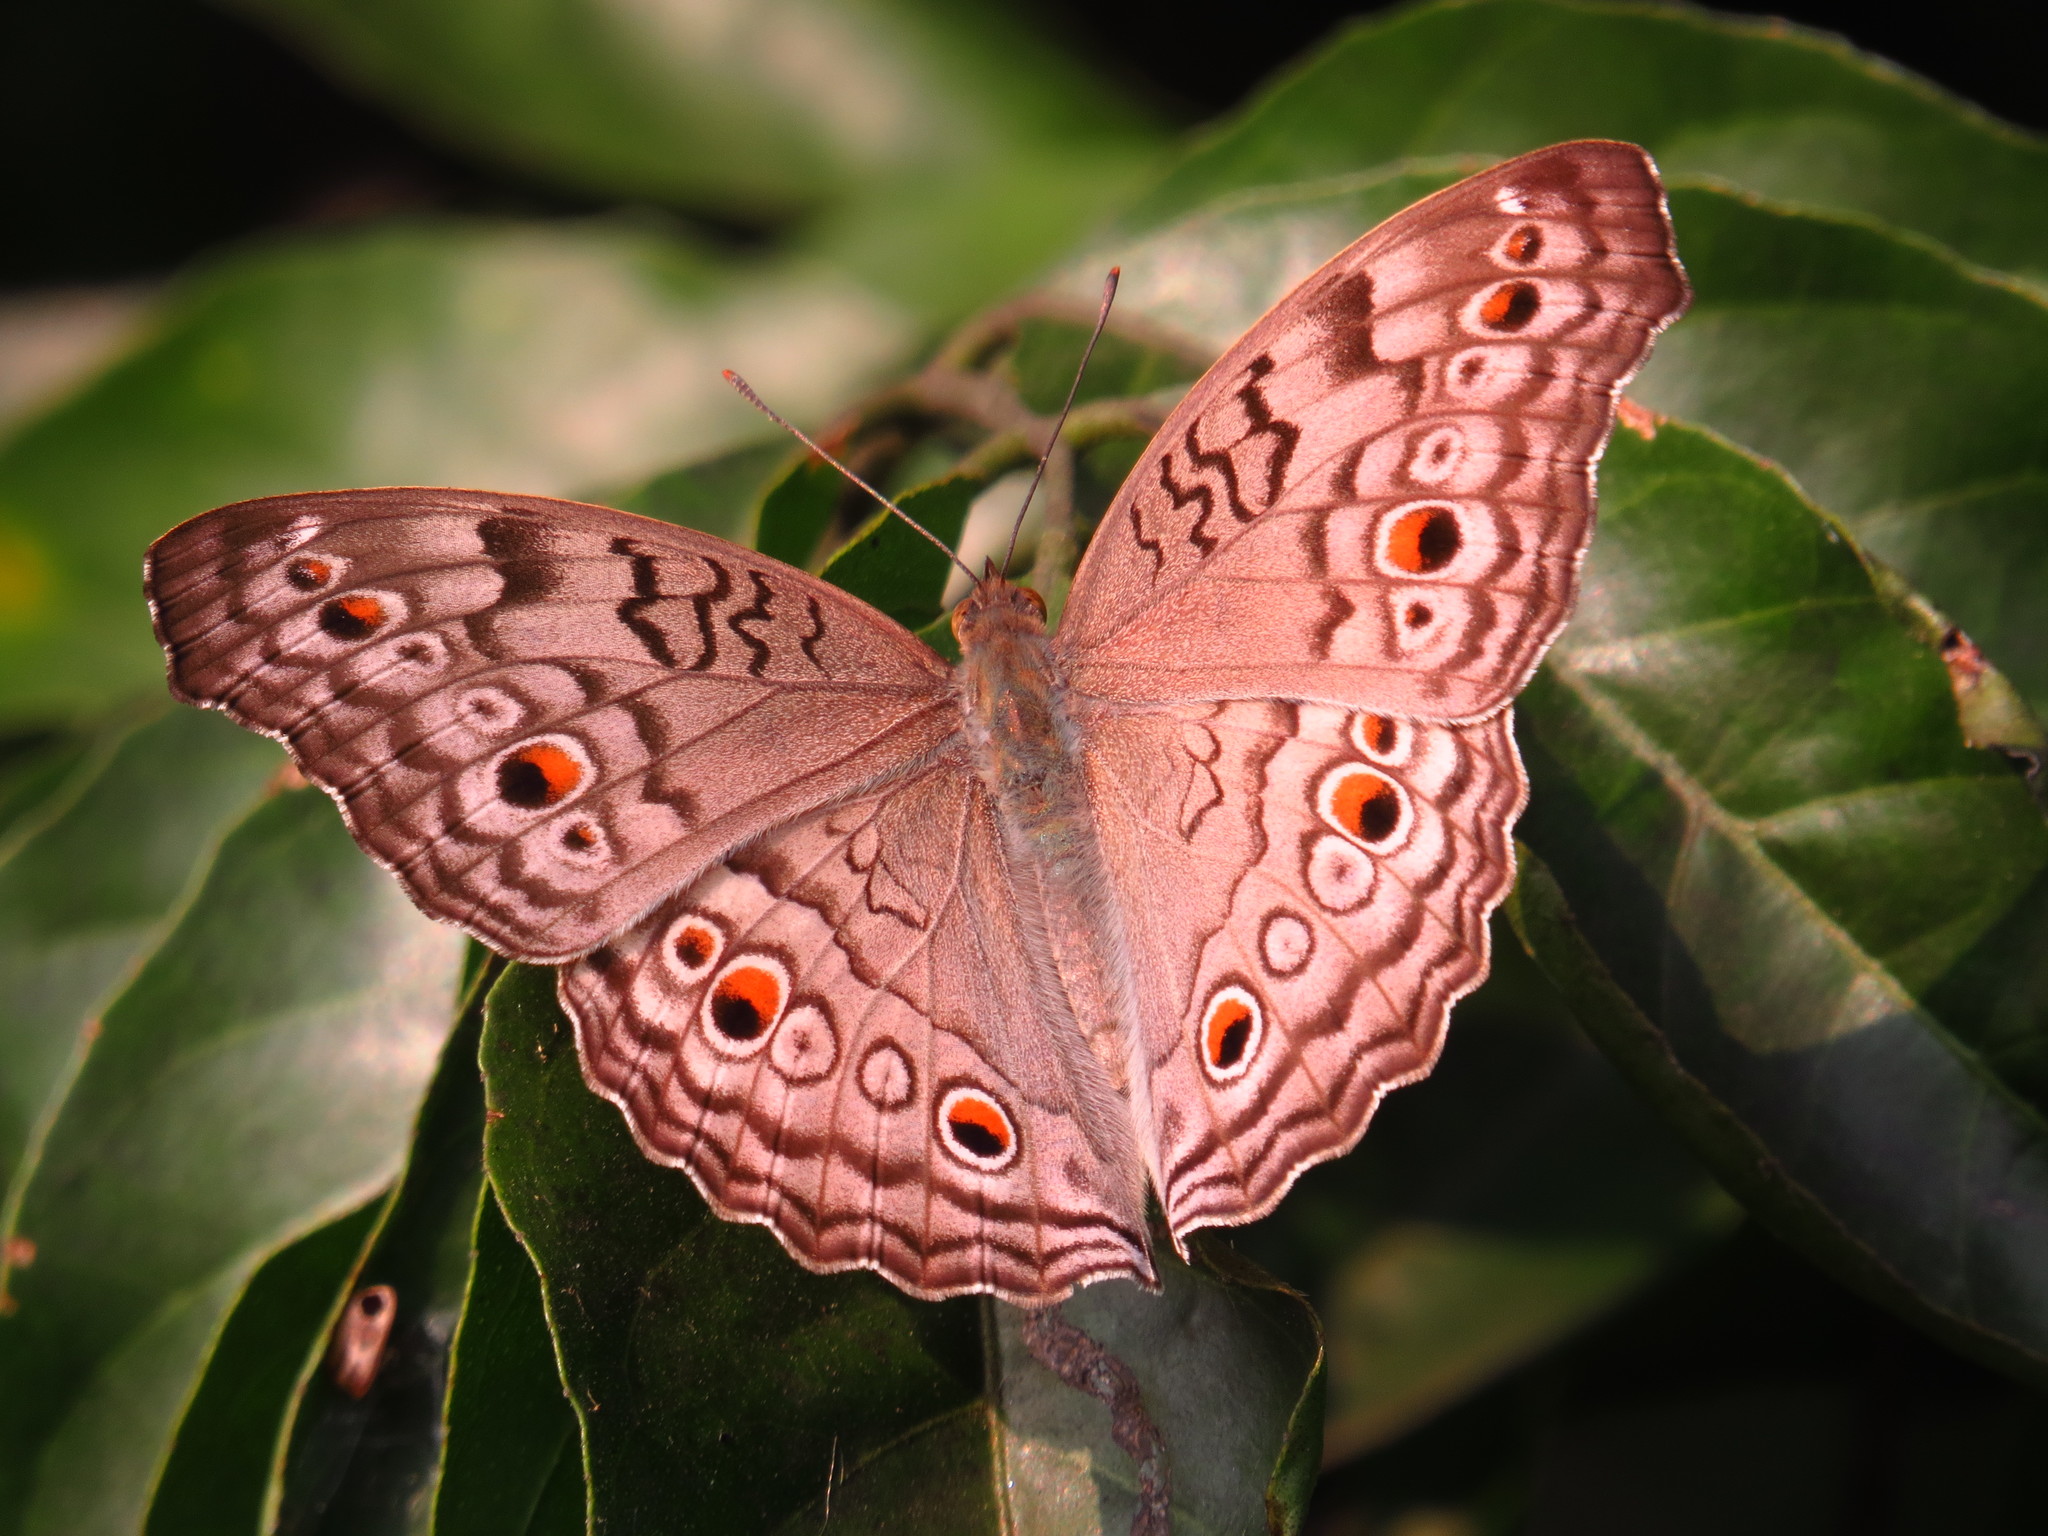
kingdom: Animalia
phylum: Arthropoda
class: Insecta
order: Lepidoptera
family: Nymphalidae
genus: Junonia
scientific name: Junonia atlites
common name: Grey pansy
